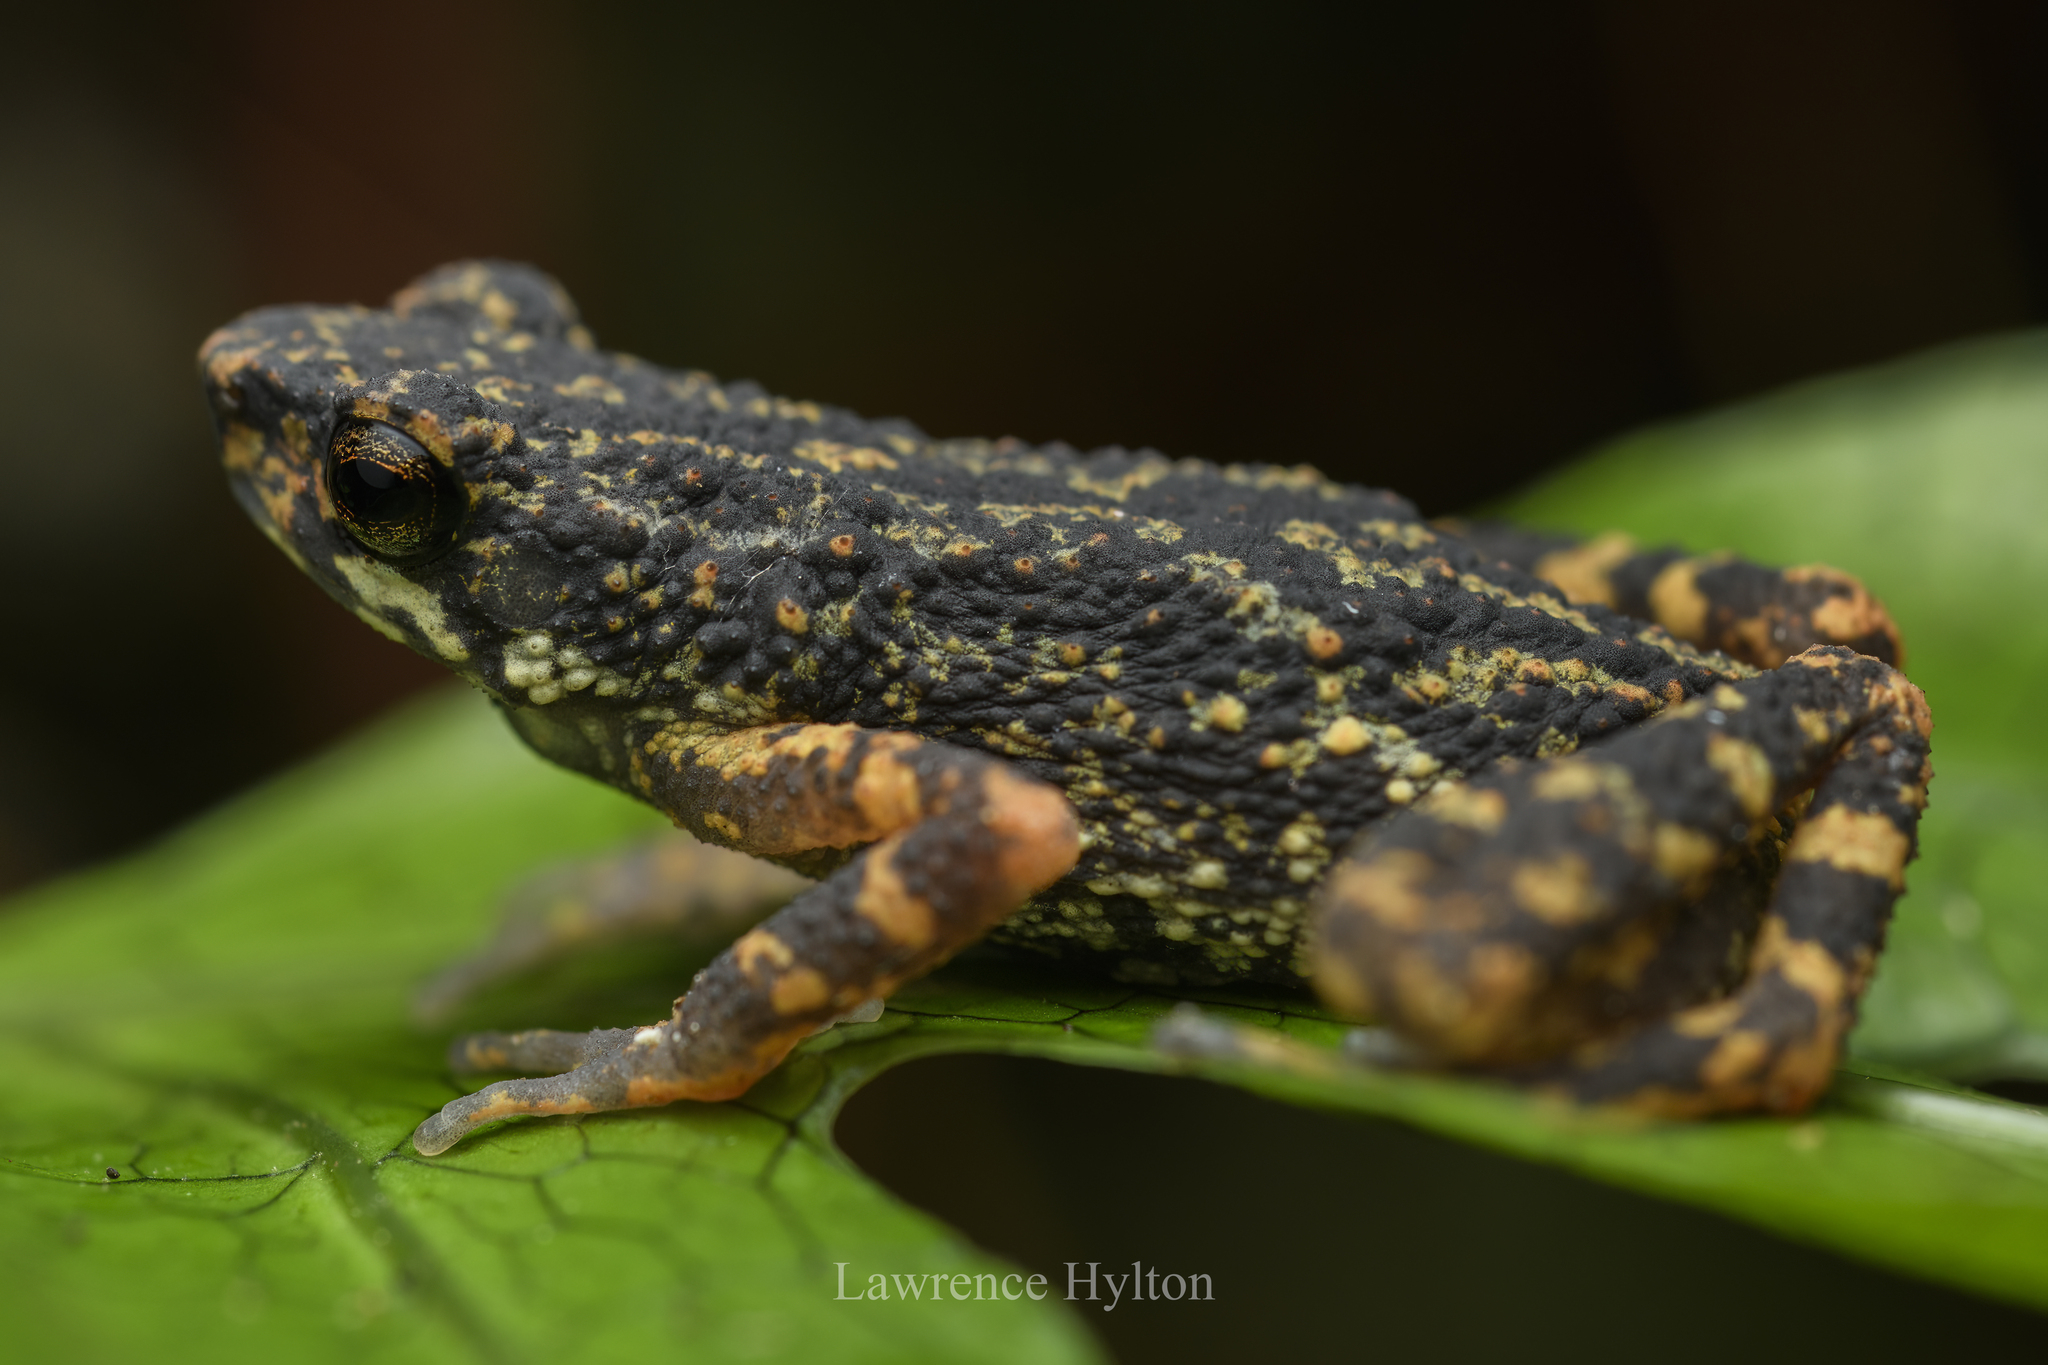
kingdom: Animalia
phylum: Chordata
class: Amphibia
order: Anura
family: Bufonidae
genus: Ansonia
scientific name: Ansonia phuketensis
